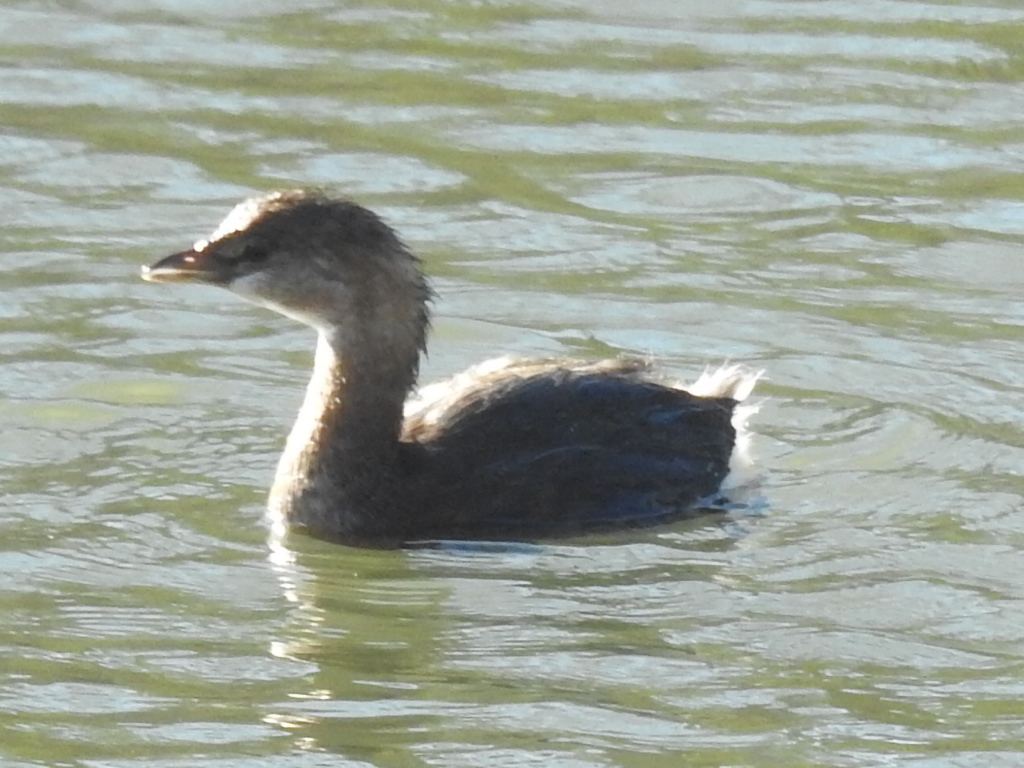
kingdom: Animalia
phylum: Chordata
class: Aves
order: Podicipediformes
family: Podicipedidae
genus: Podilymbus
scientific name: Podilymbus podiceps
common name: Pied-billed grebe
